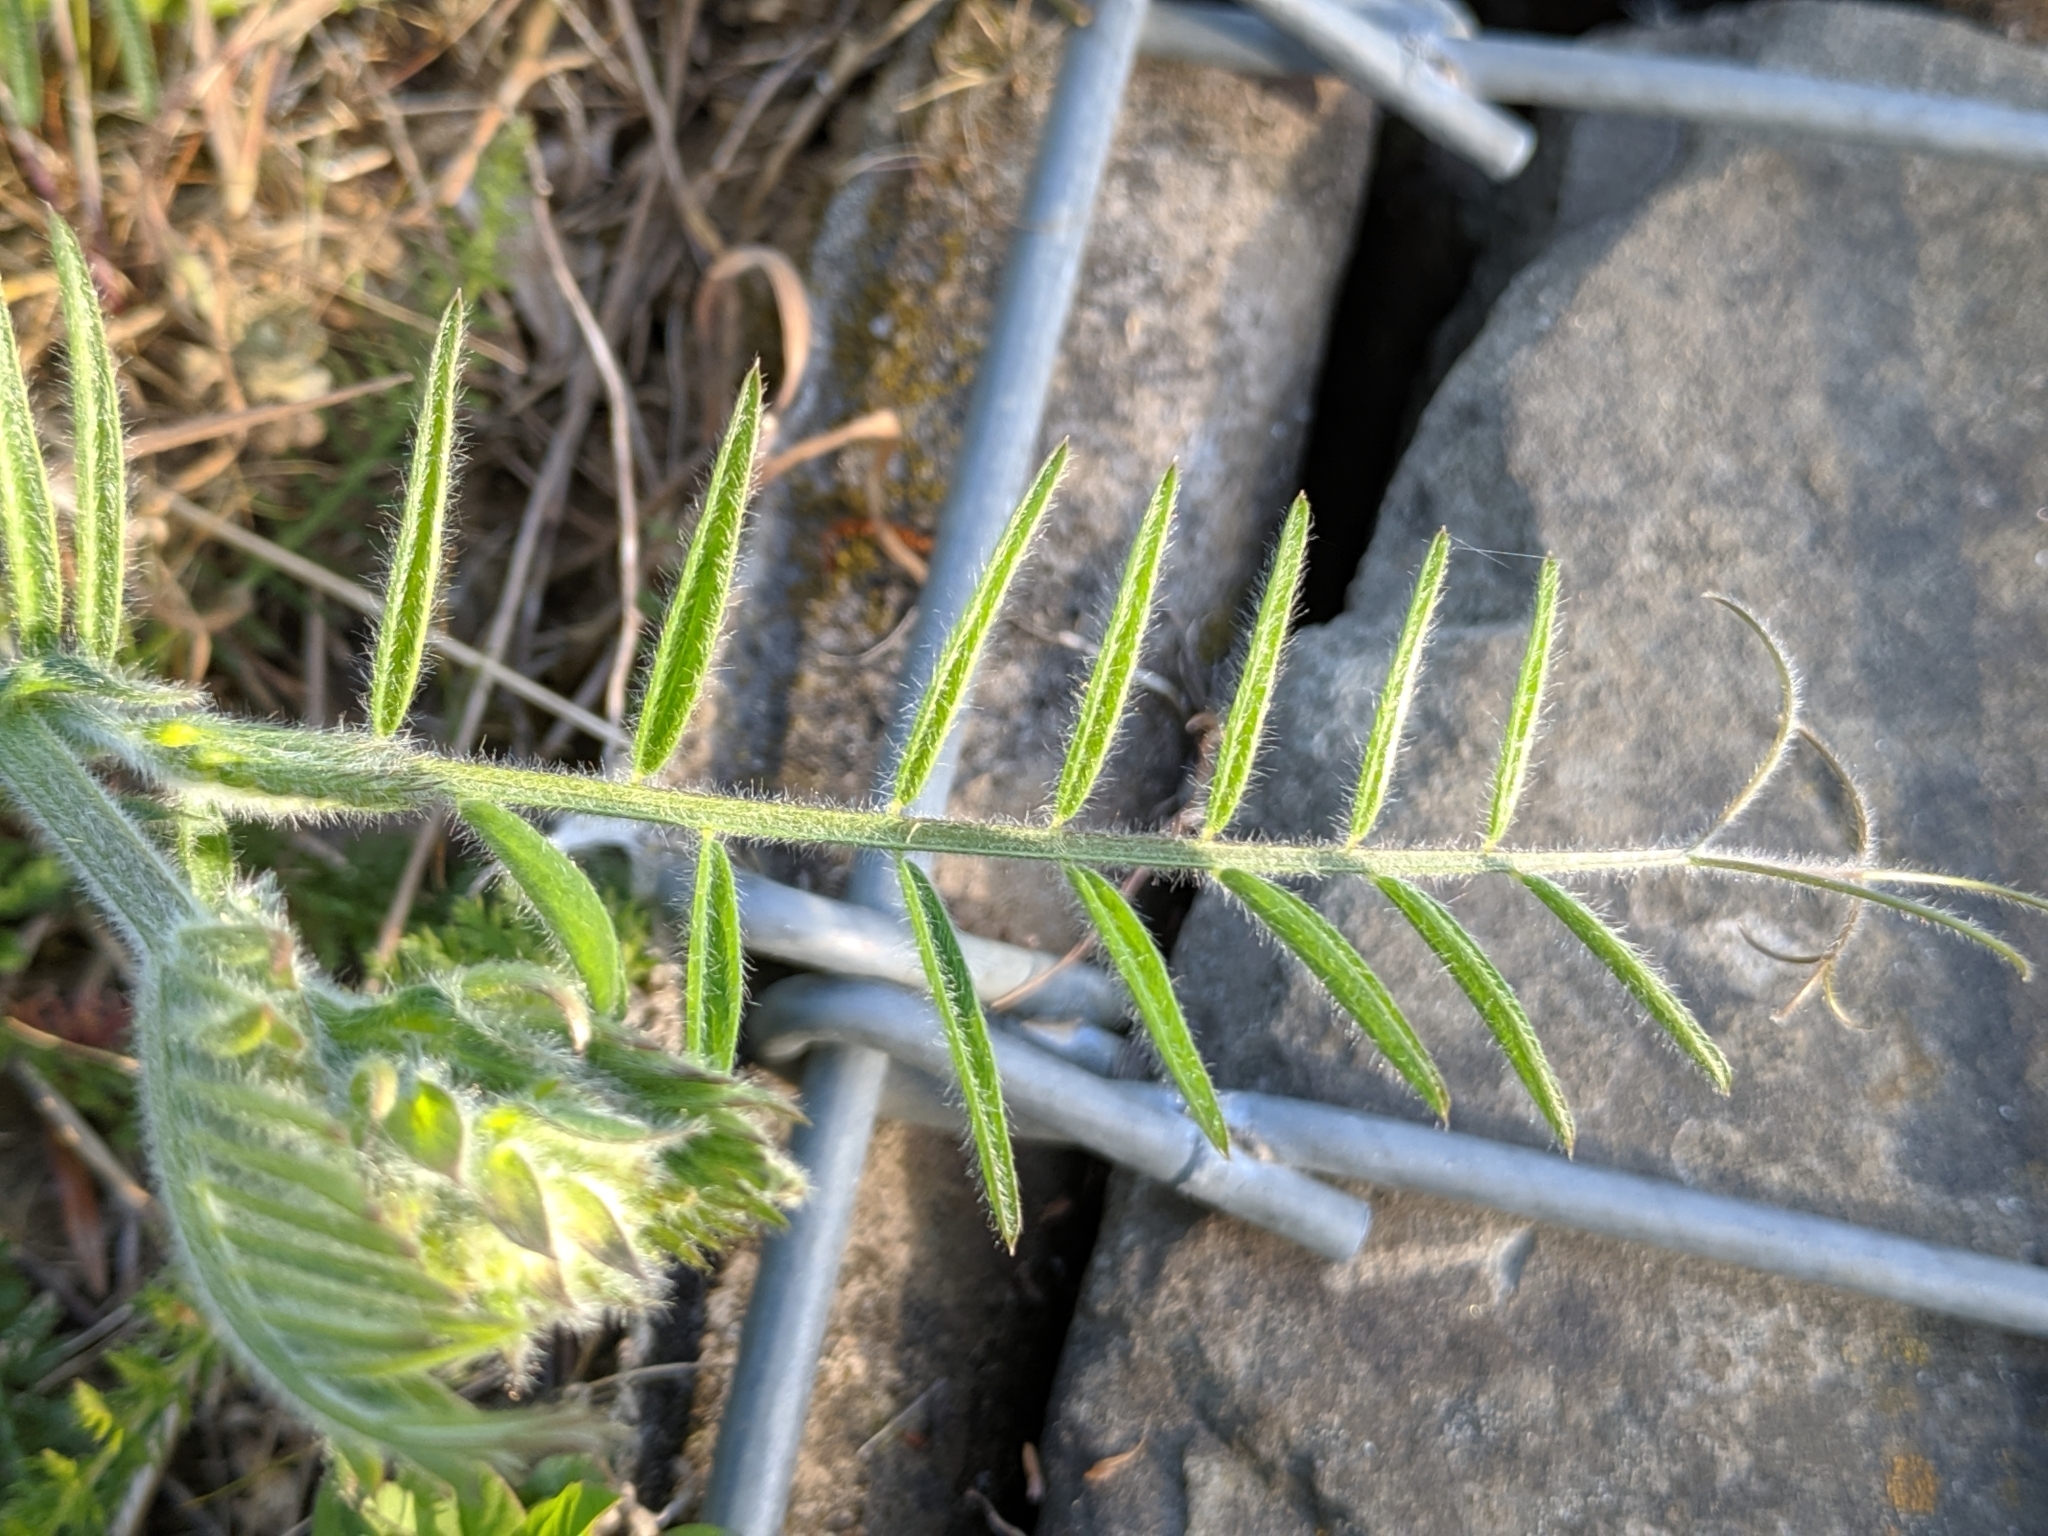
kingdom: Plantae
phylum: Tracheophyta
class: Magnoliopsida
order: Fabales
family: Fabaceae
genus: Vicia
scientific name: Vicia cracca
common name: Bird vetch
